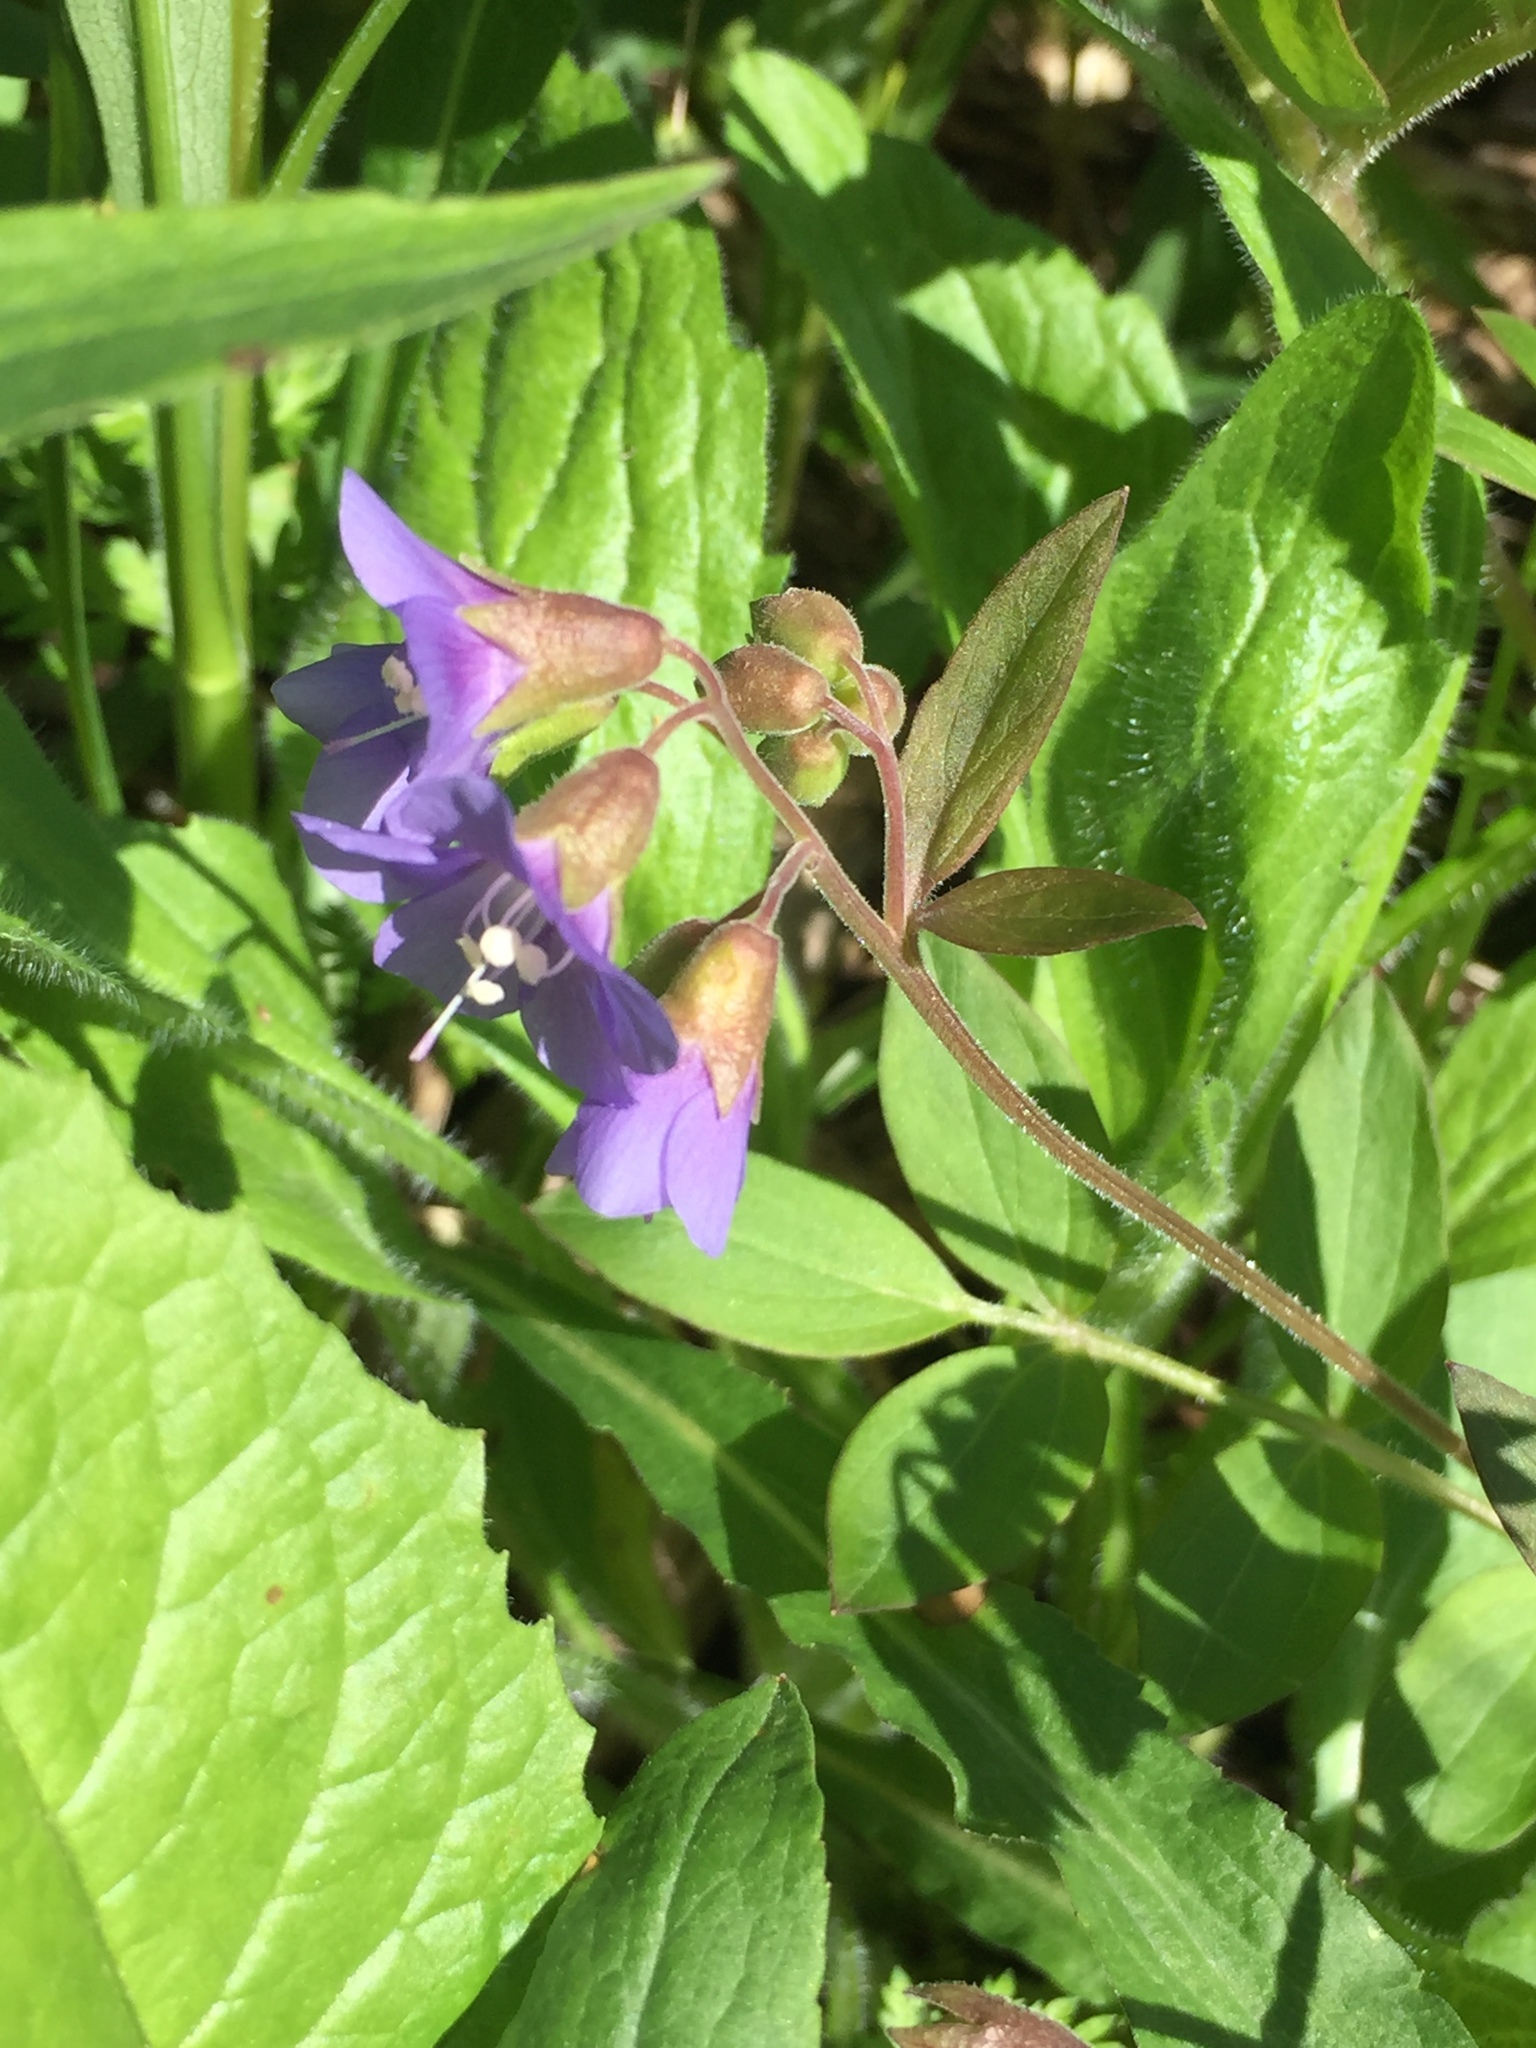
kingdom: Plantae
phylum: Tracheophyta
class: Magnoliopsida
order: Ericales
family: Polemoniaceae
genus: Polemonium
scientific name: Polemonium reptans
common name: Creeping jacob's-ladder
